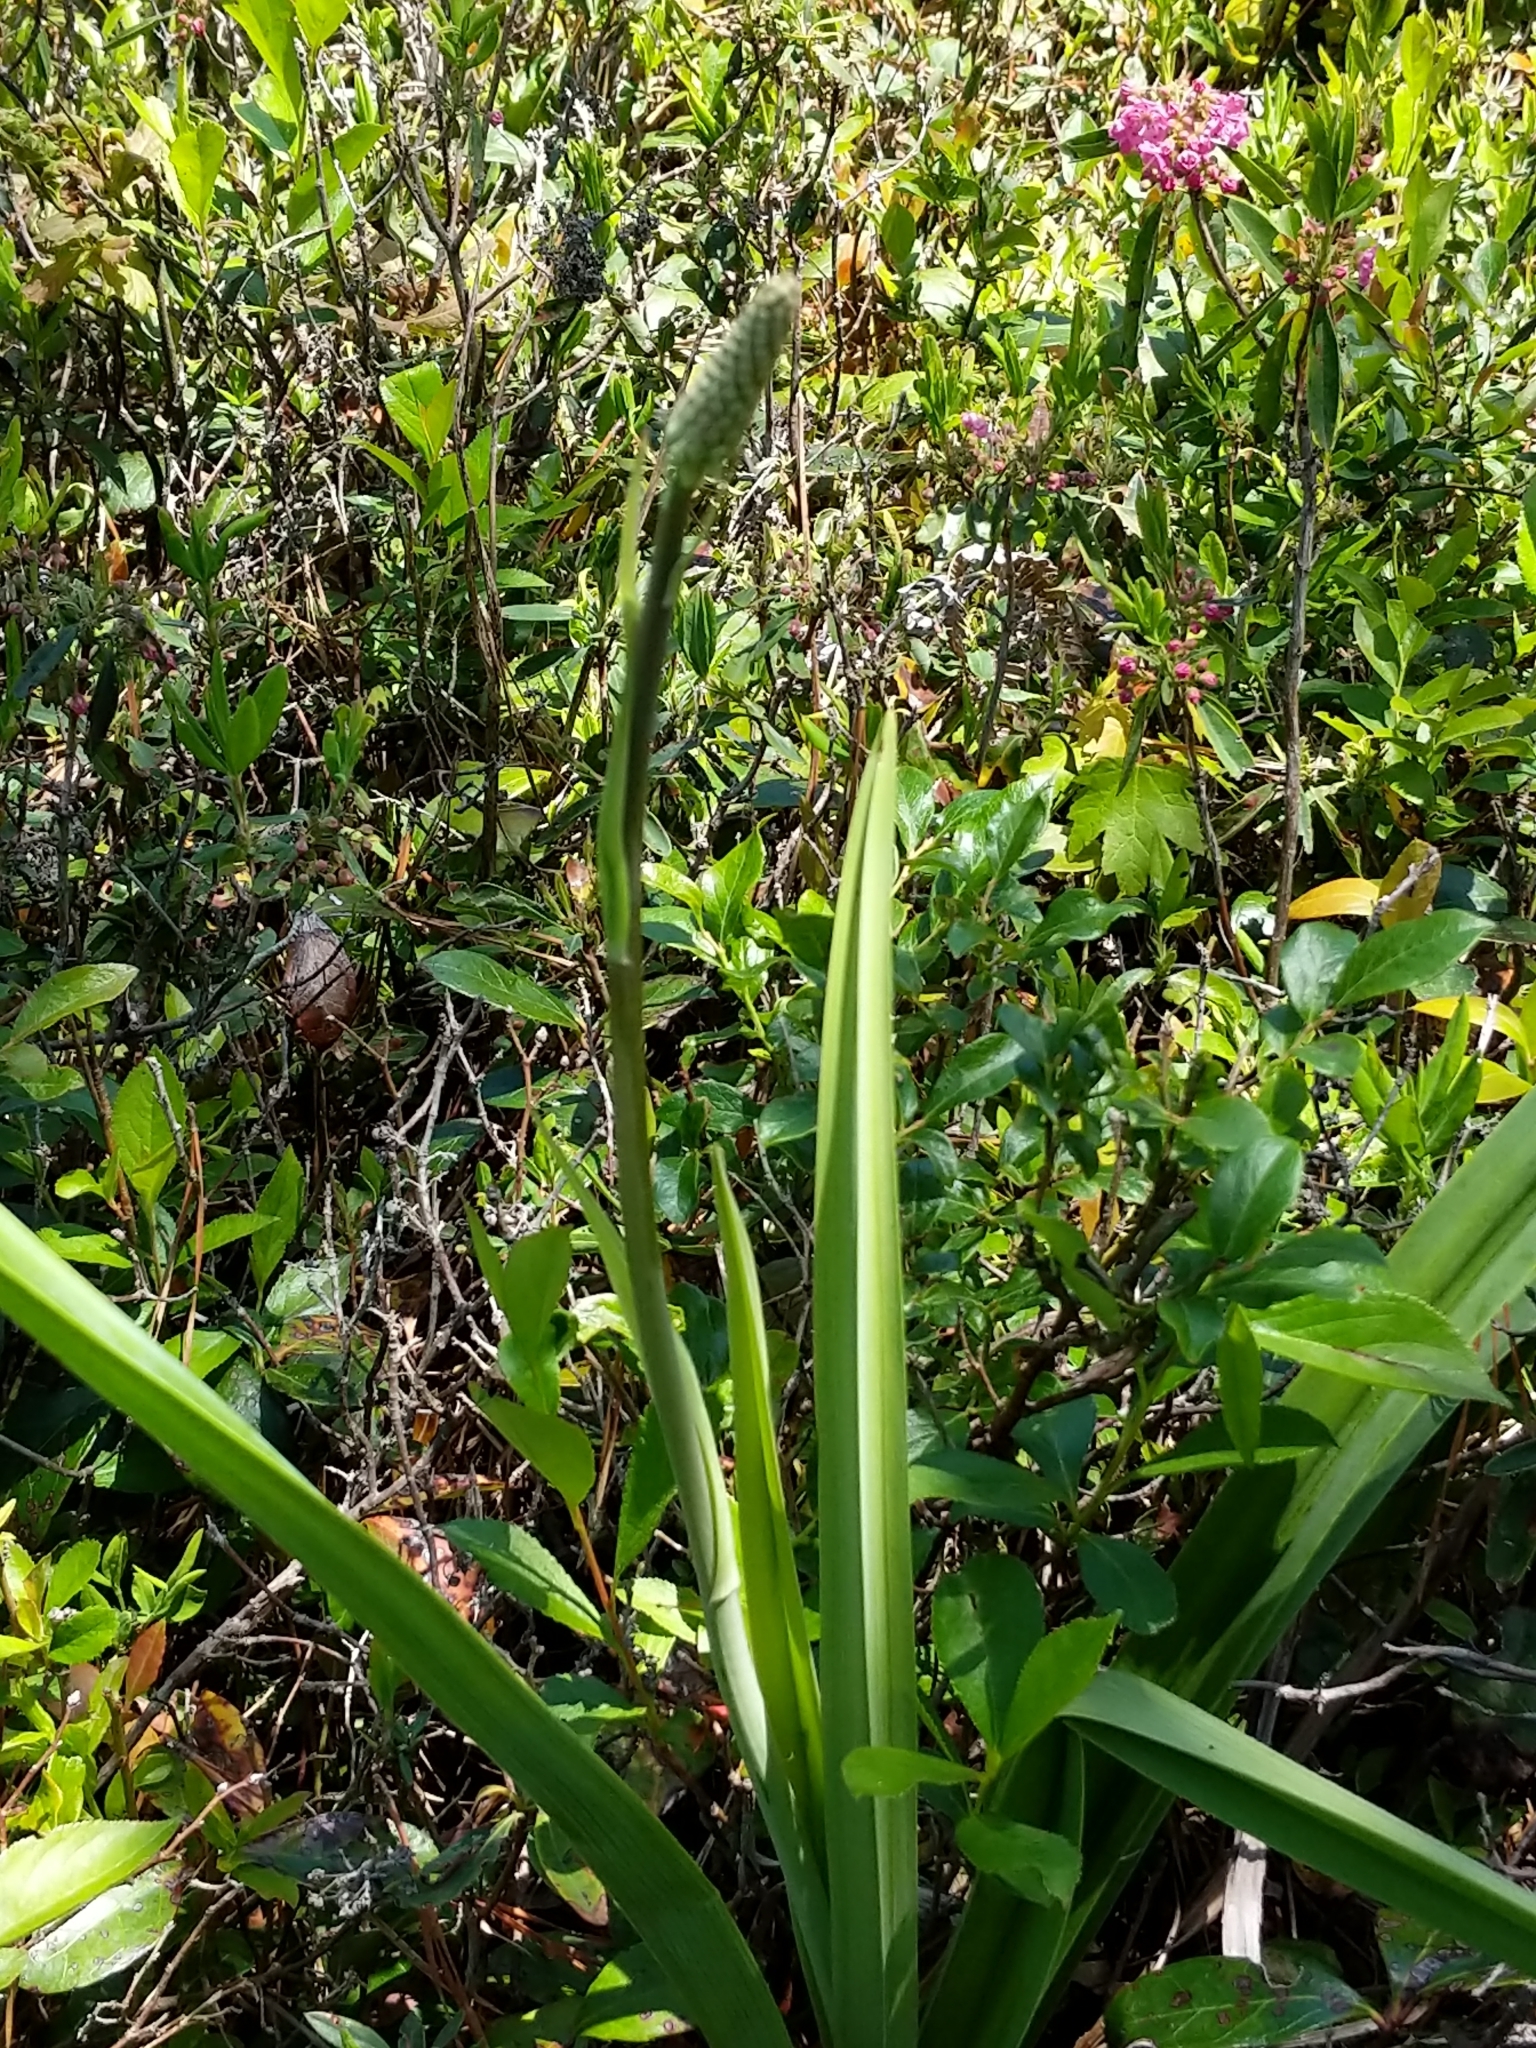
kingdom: Plantae
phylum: Tracheophyta
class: Liliopsida
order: Liliales
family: Melanthiaceae
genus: Amianthium
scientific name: Amianthium muscitoxicum
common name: Fly-poison
